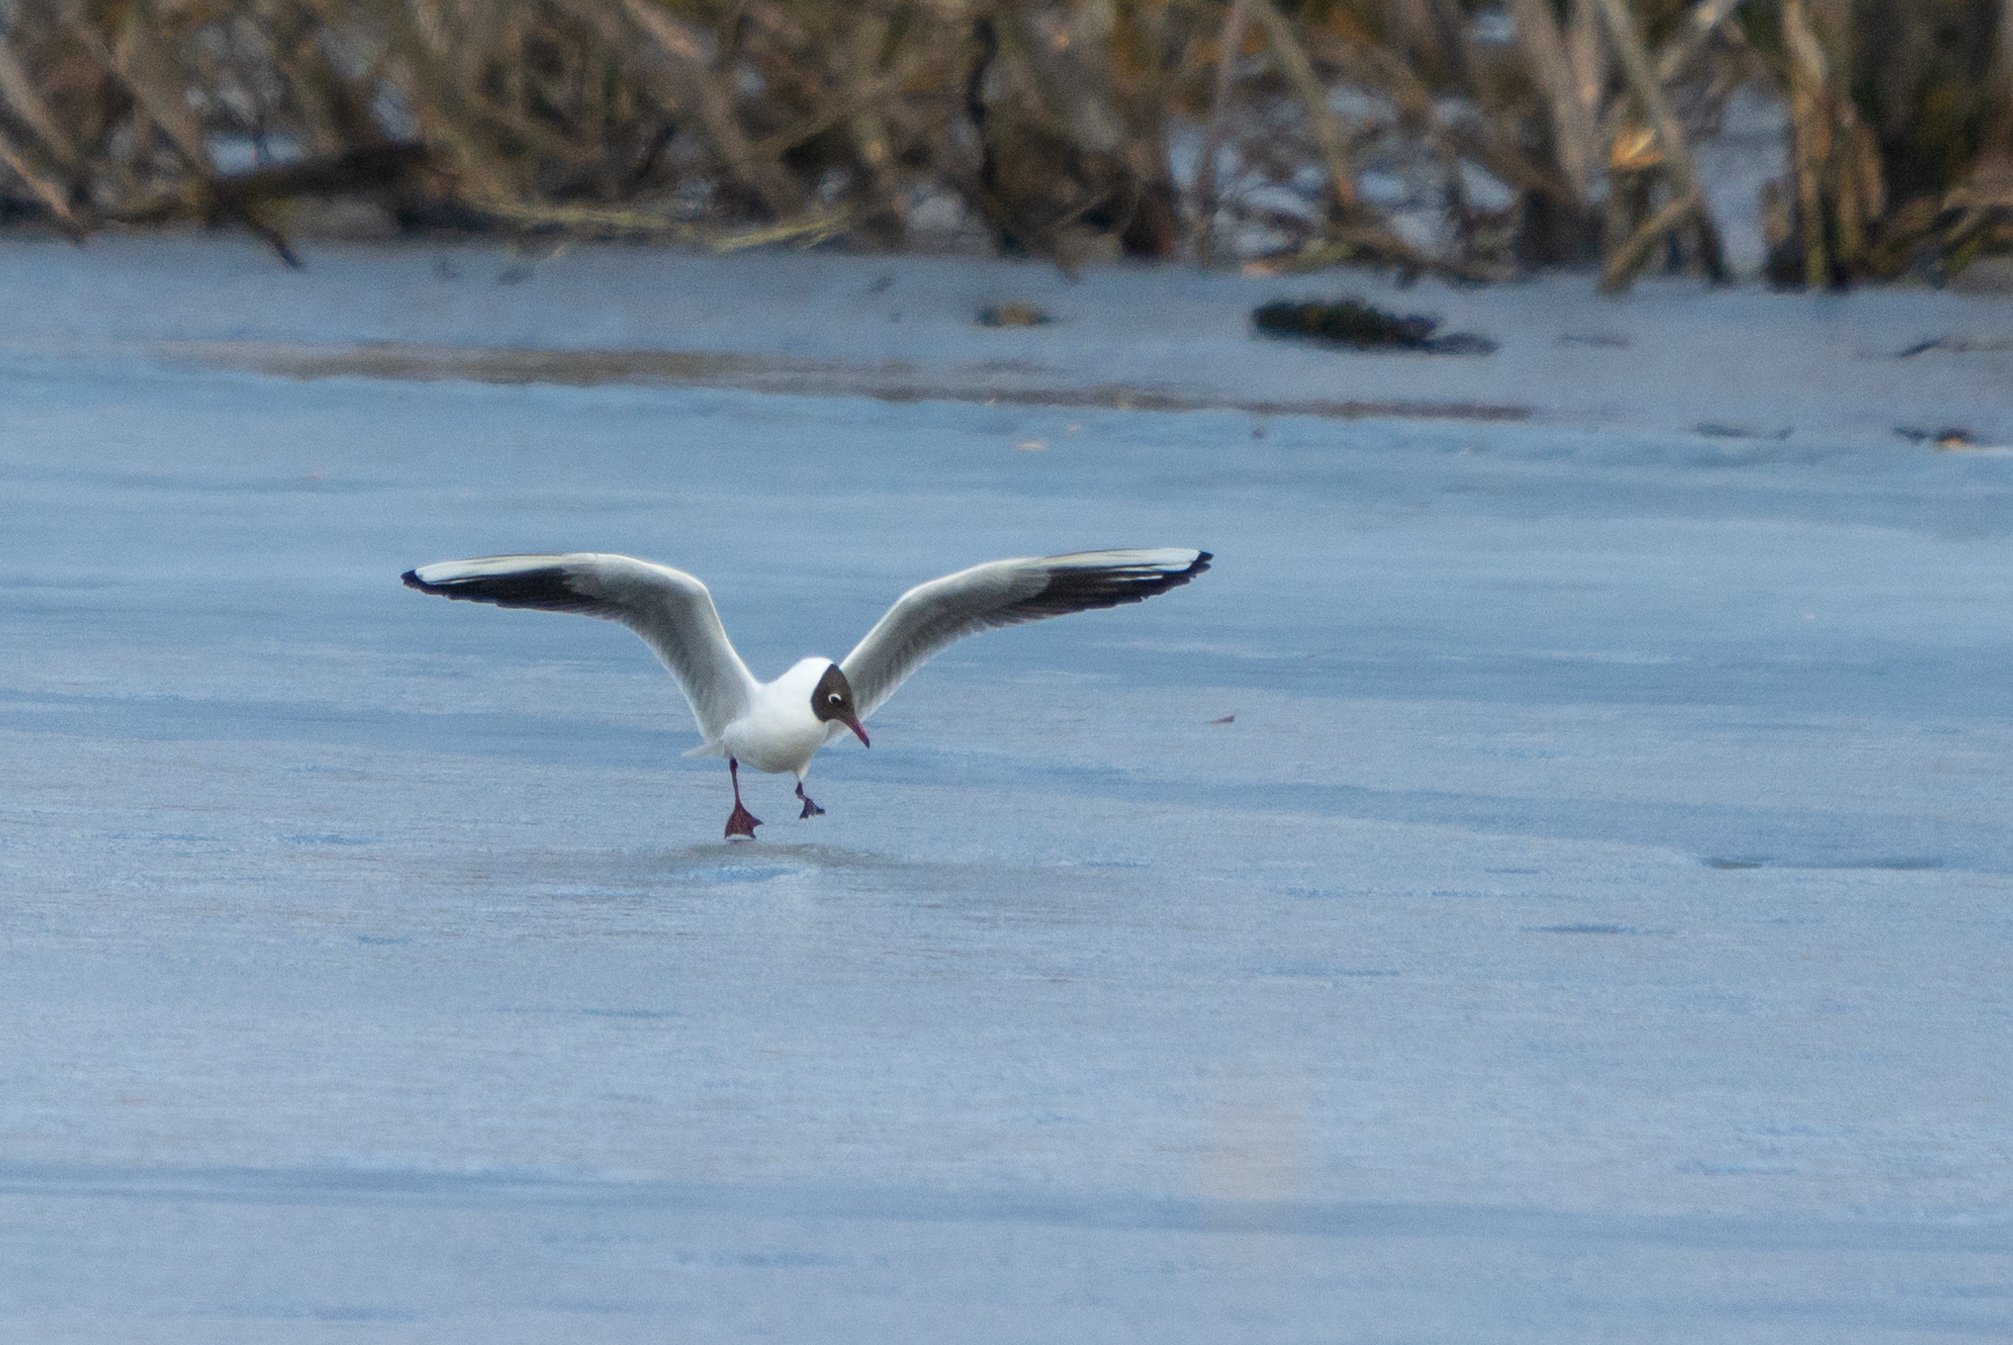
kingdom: Animalia
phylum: Chordata
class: Aves
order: Charadriiformes
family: Laridae
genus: Chroicocephalus
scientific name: Chroicocephalus ridibundus
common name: Black-headed gull
